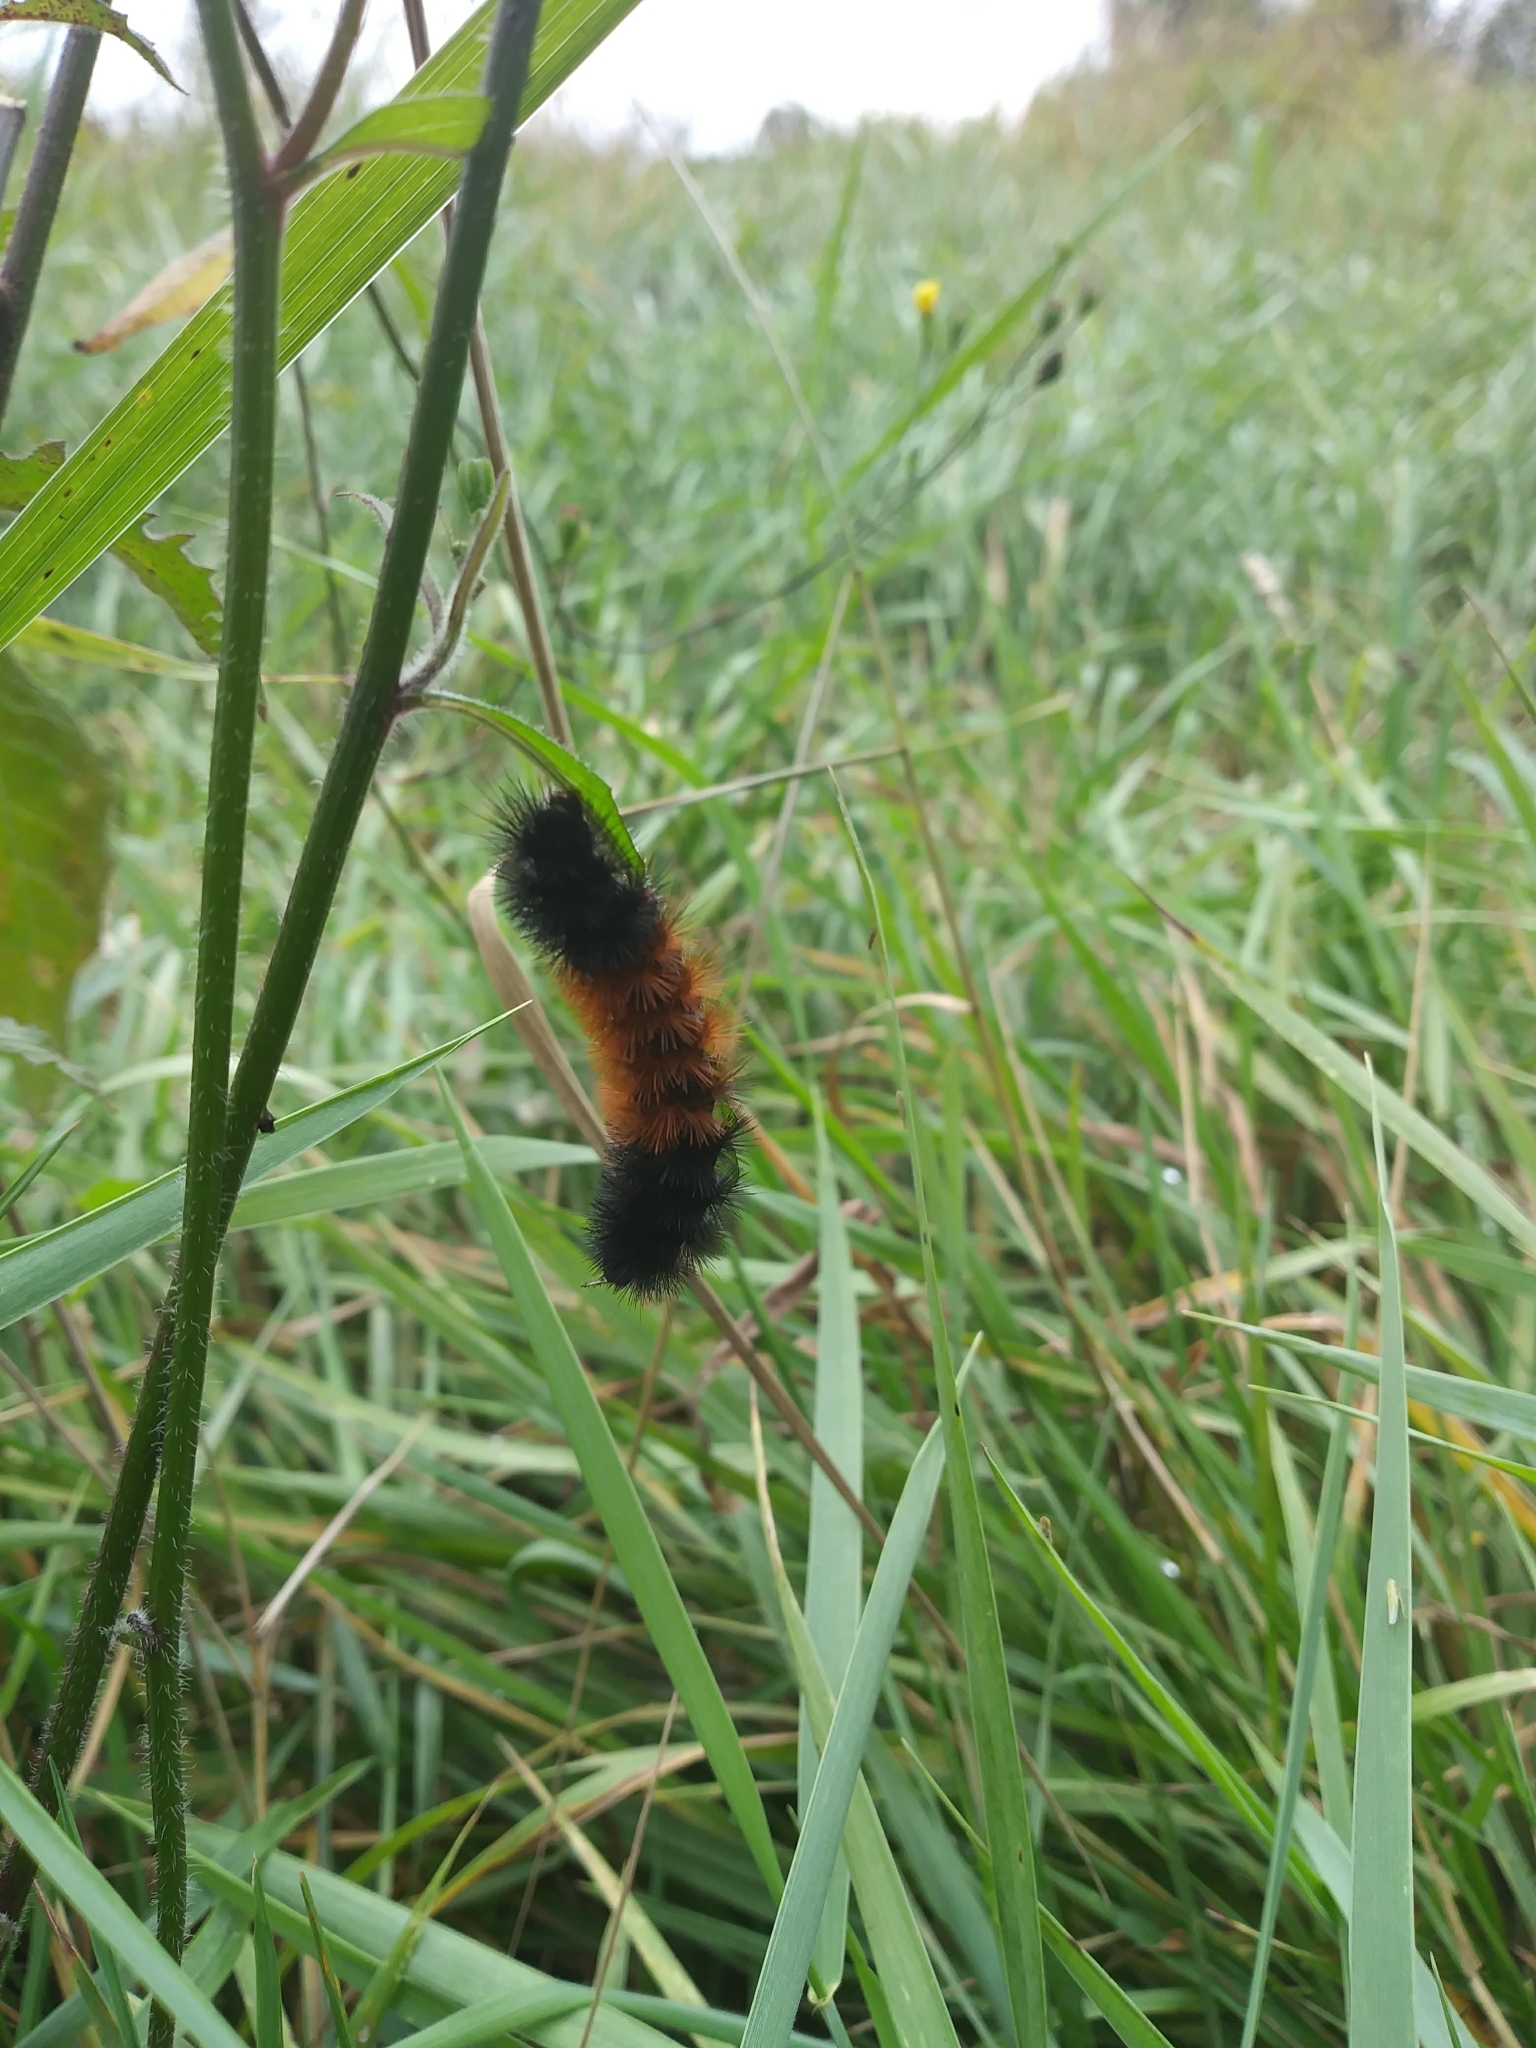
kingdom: Animalia
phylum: Arthropoda
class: Insecta
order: Lepidoptera
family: Erebidae
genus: Pyrrharctia
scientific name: Pyrrharctia isabella
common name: Isabella tiger moth
